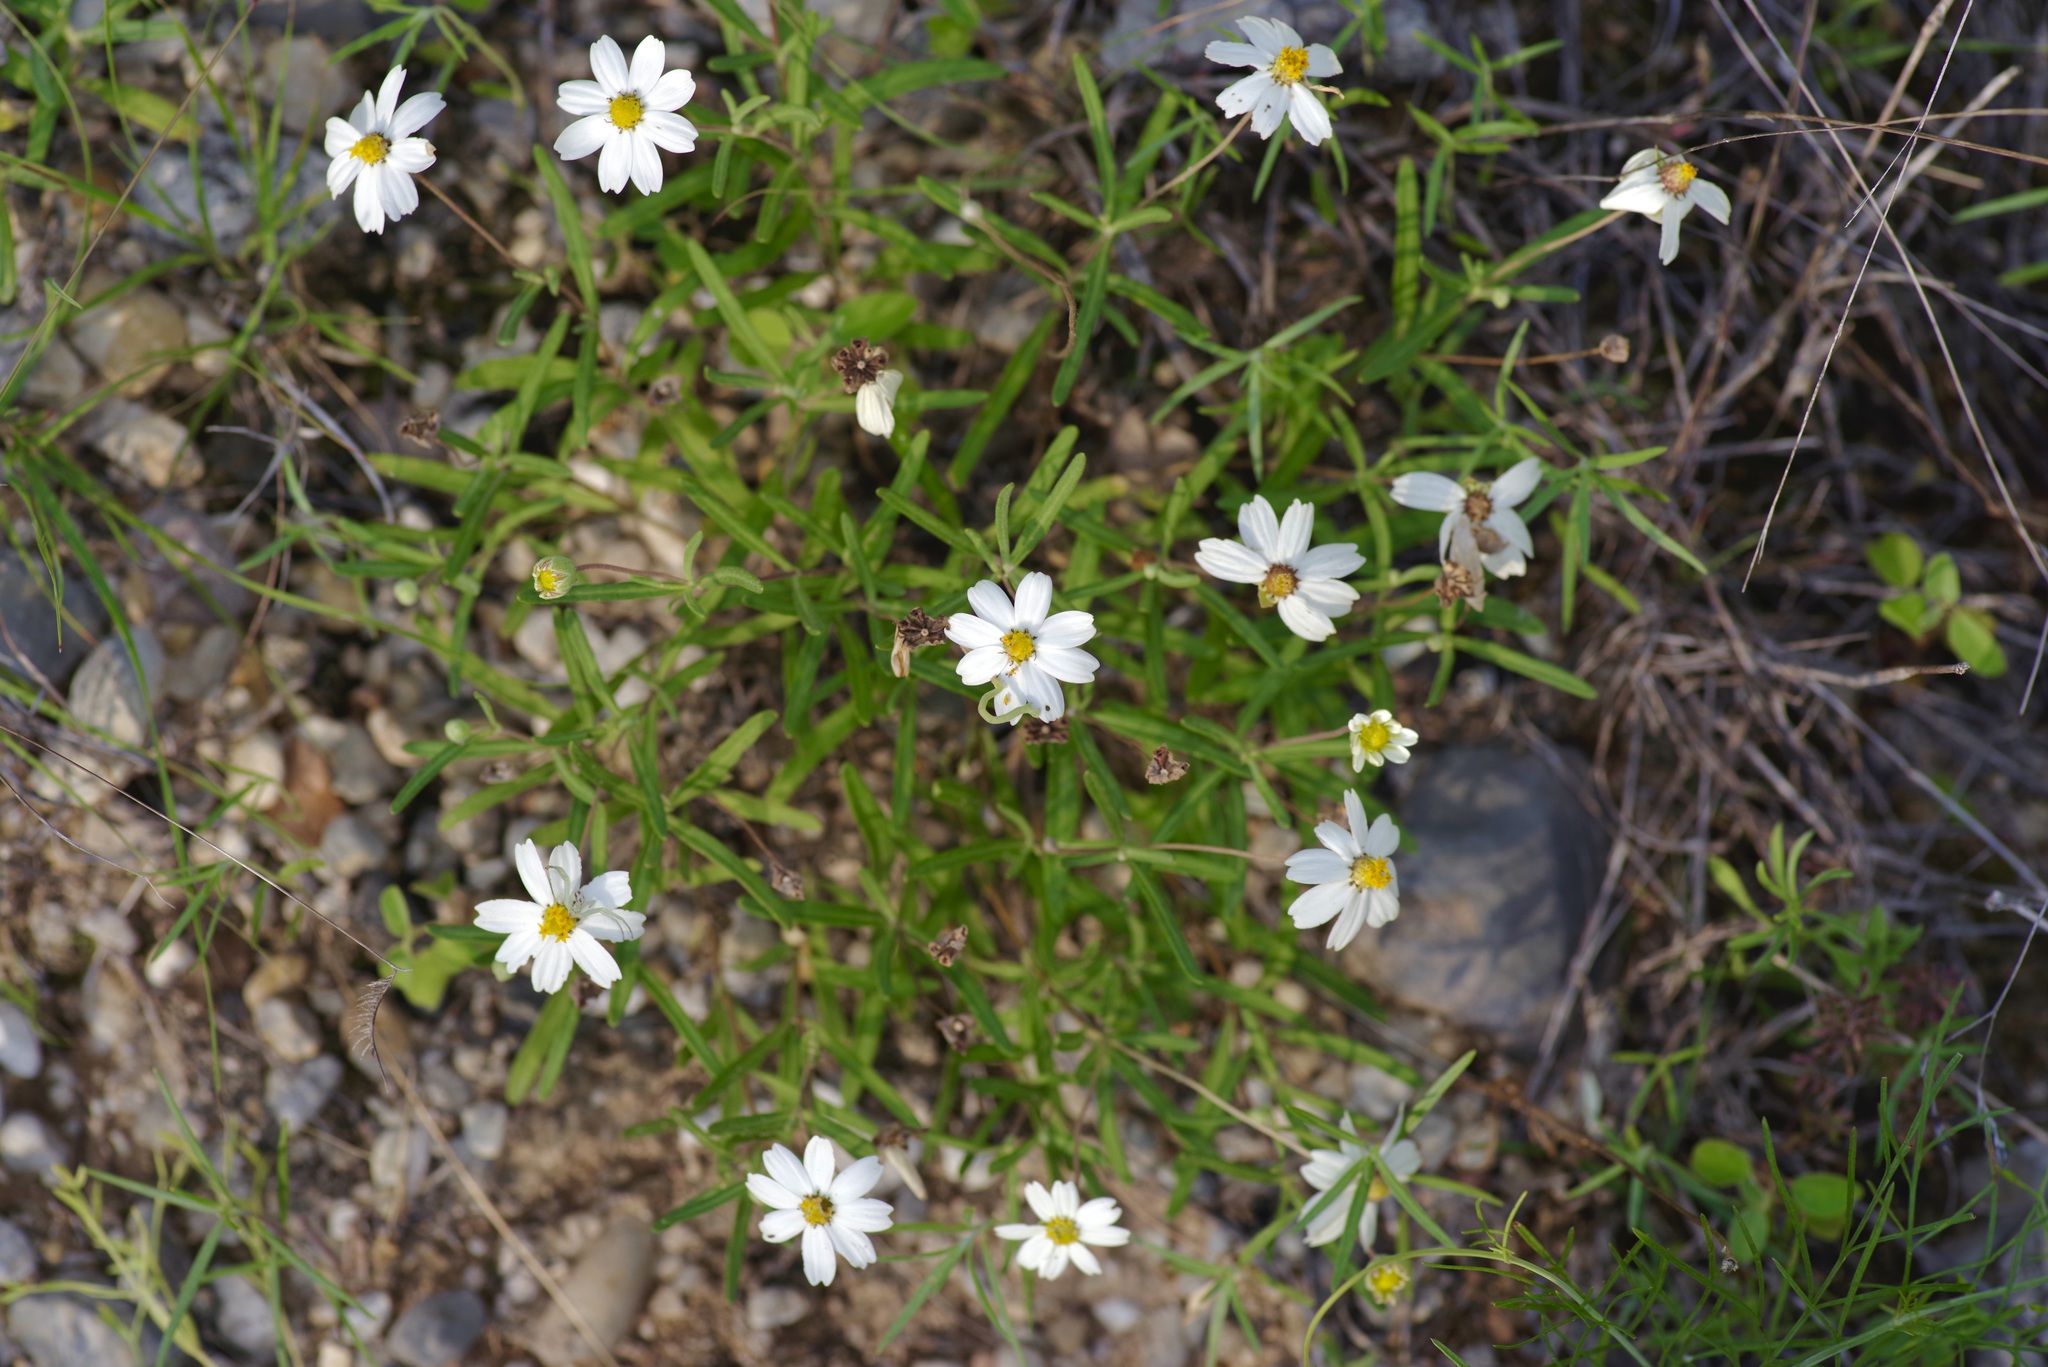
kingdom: Plantae
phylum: Tracheophyta
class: Magnoliopsida
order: Asterales
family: Asteraceae
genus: Melampodium
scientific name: Melampodium leucanthum
